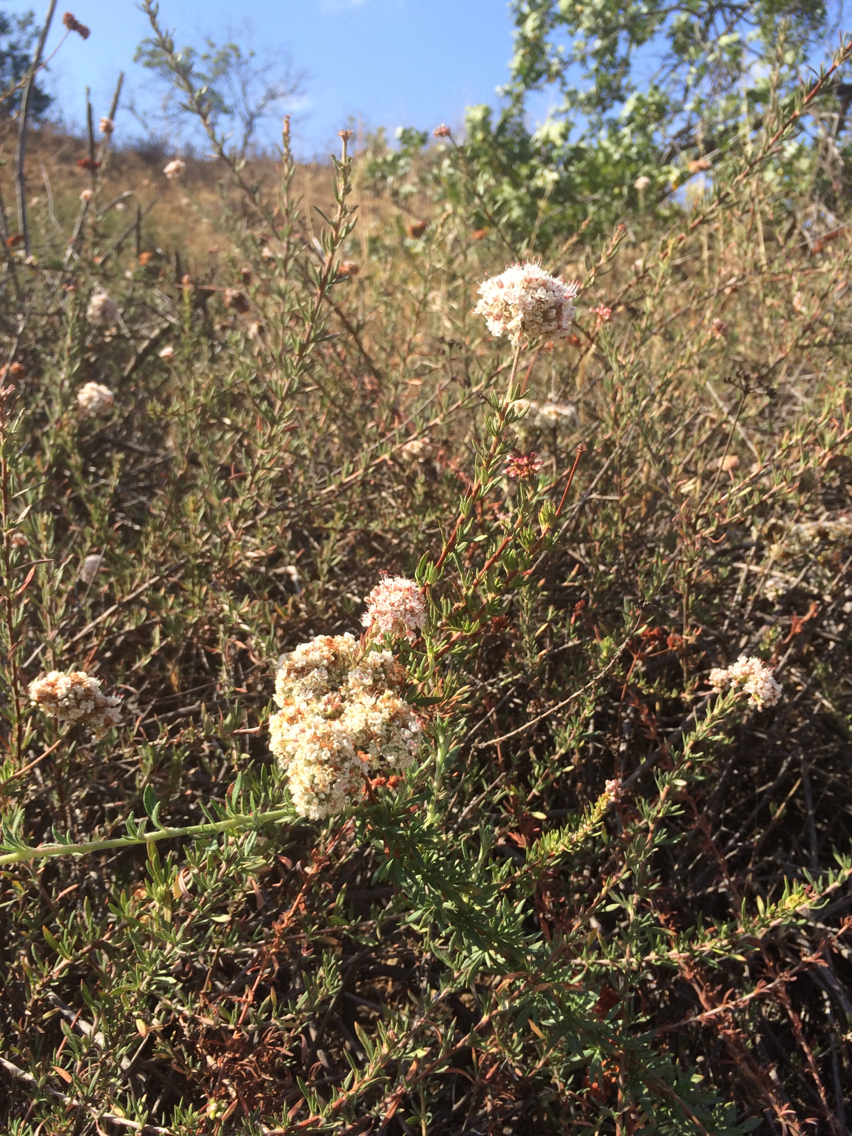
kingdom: Plantae
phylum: Tracheophyta
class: Magnoliopsida
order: Caryophyllales
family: Polygonaceae
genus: Eriogonum
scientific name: Eriogonum fasciculatum
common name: California wild buckwheat
